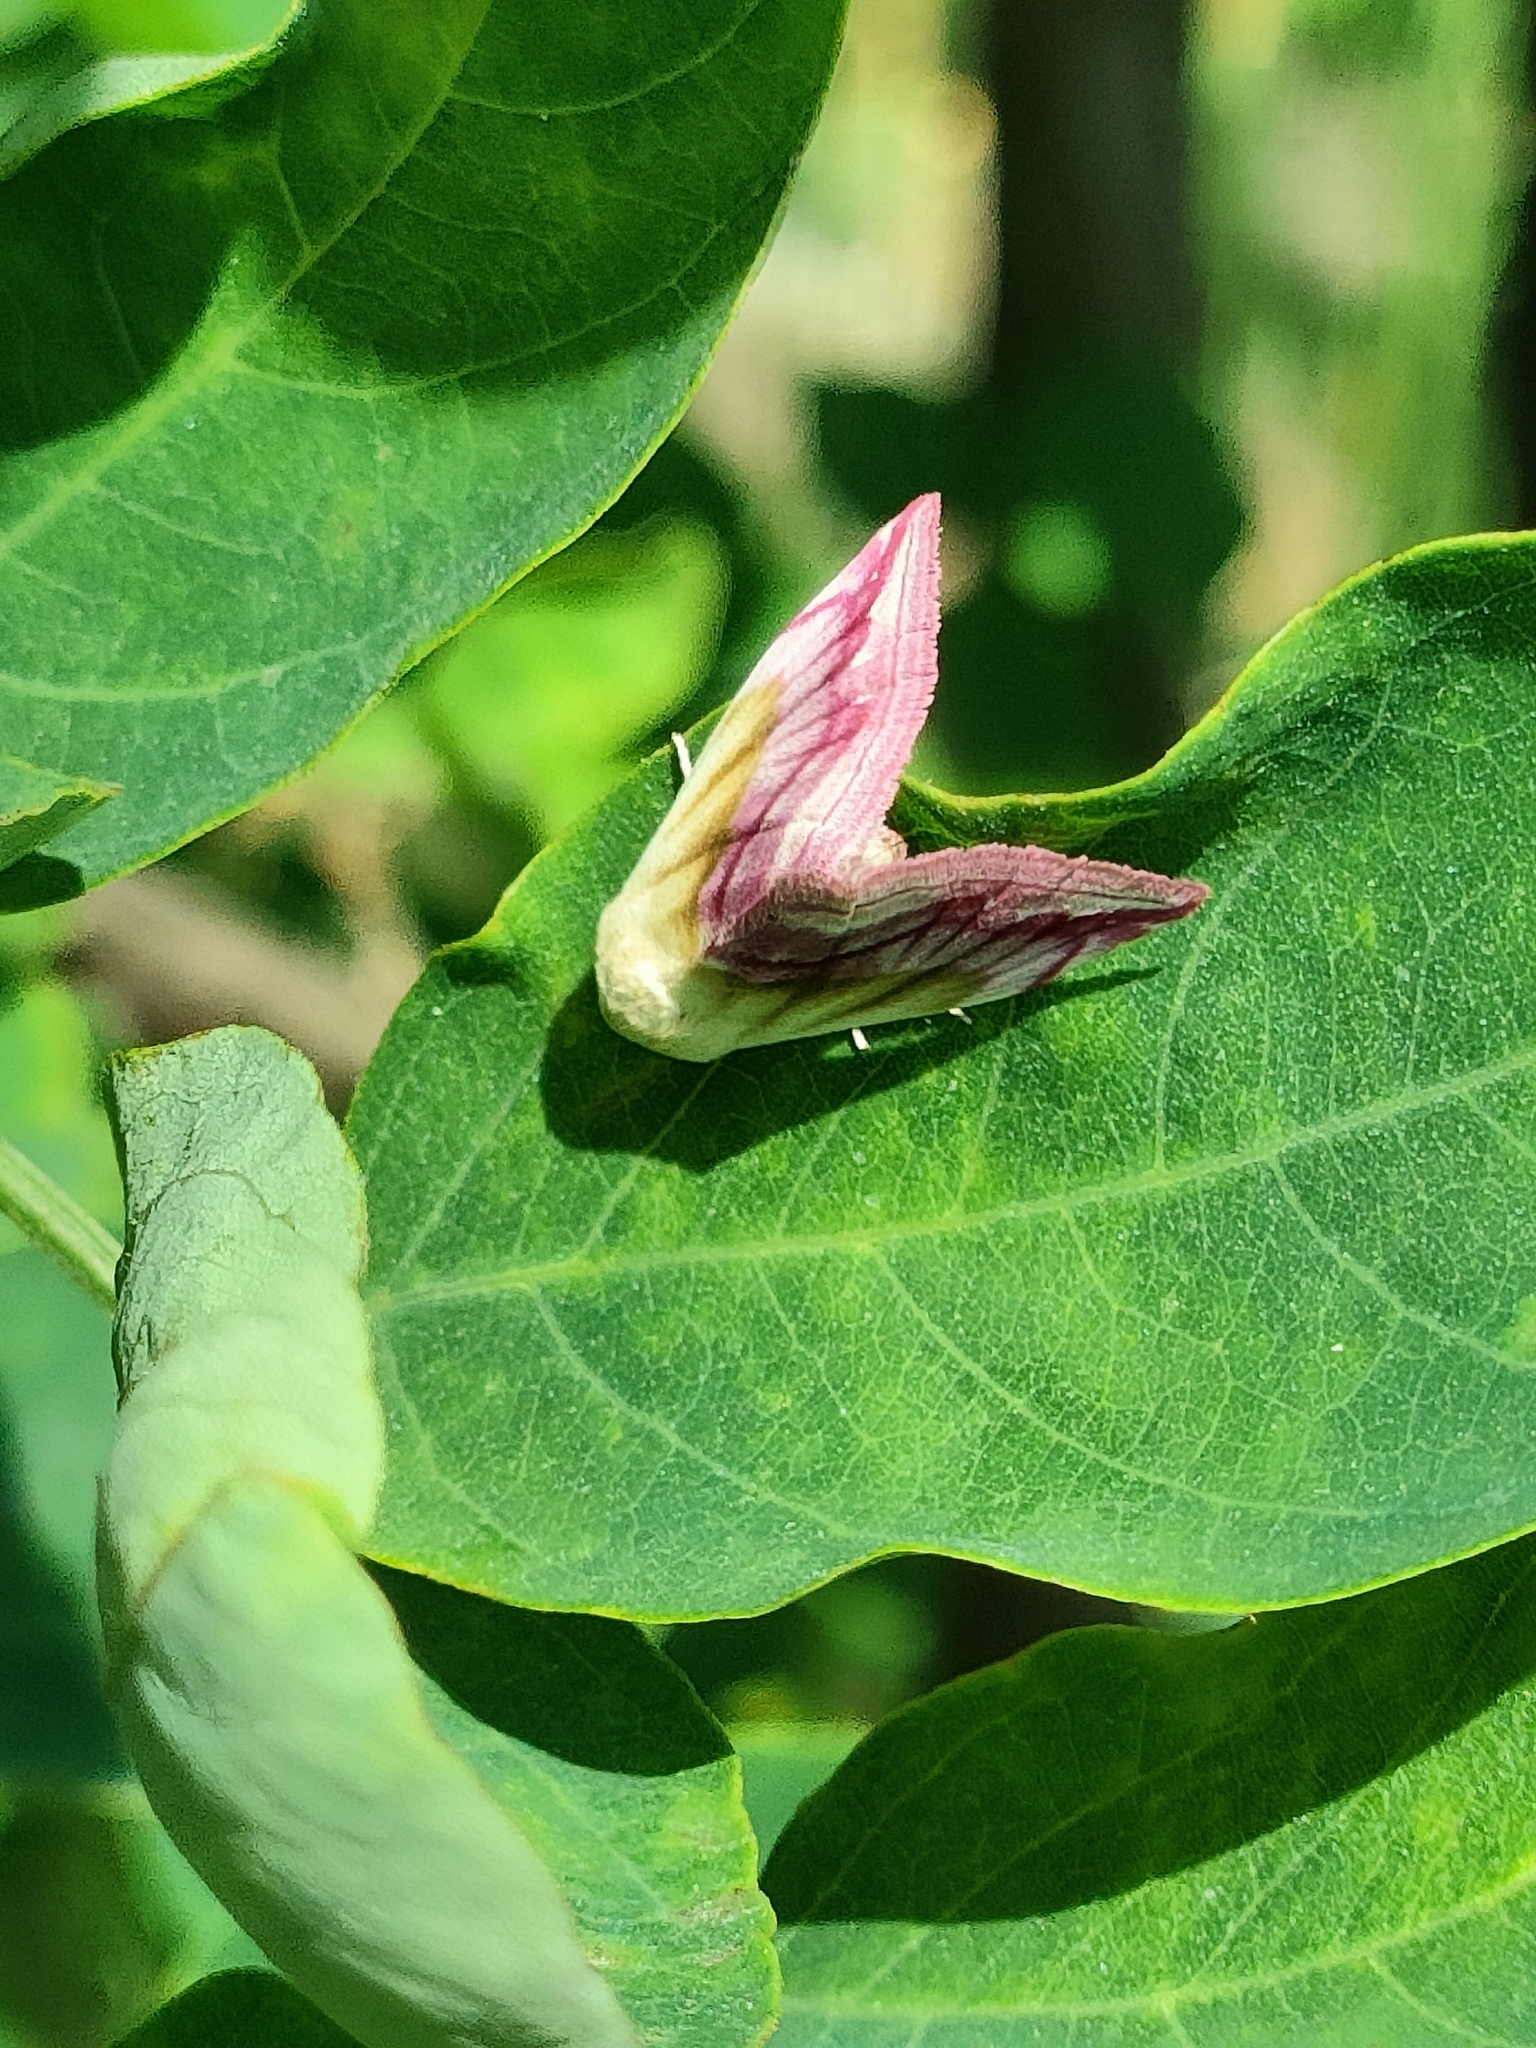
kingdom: Animalia
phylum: Arthropoda
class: Insecta
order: Lepidoptera
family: Noctuidae
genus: Eublemma
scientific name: Eublemma purpurina
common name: Beautiful marbled
